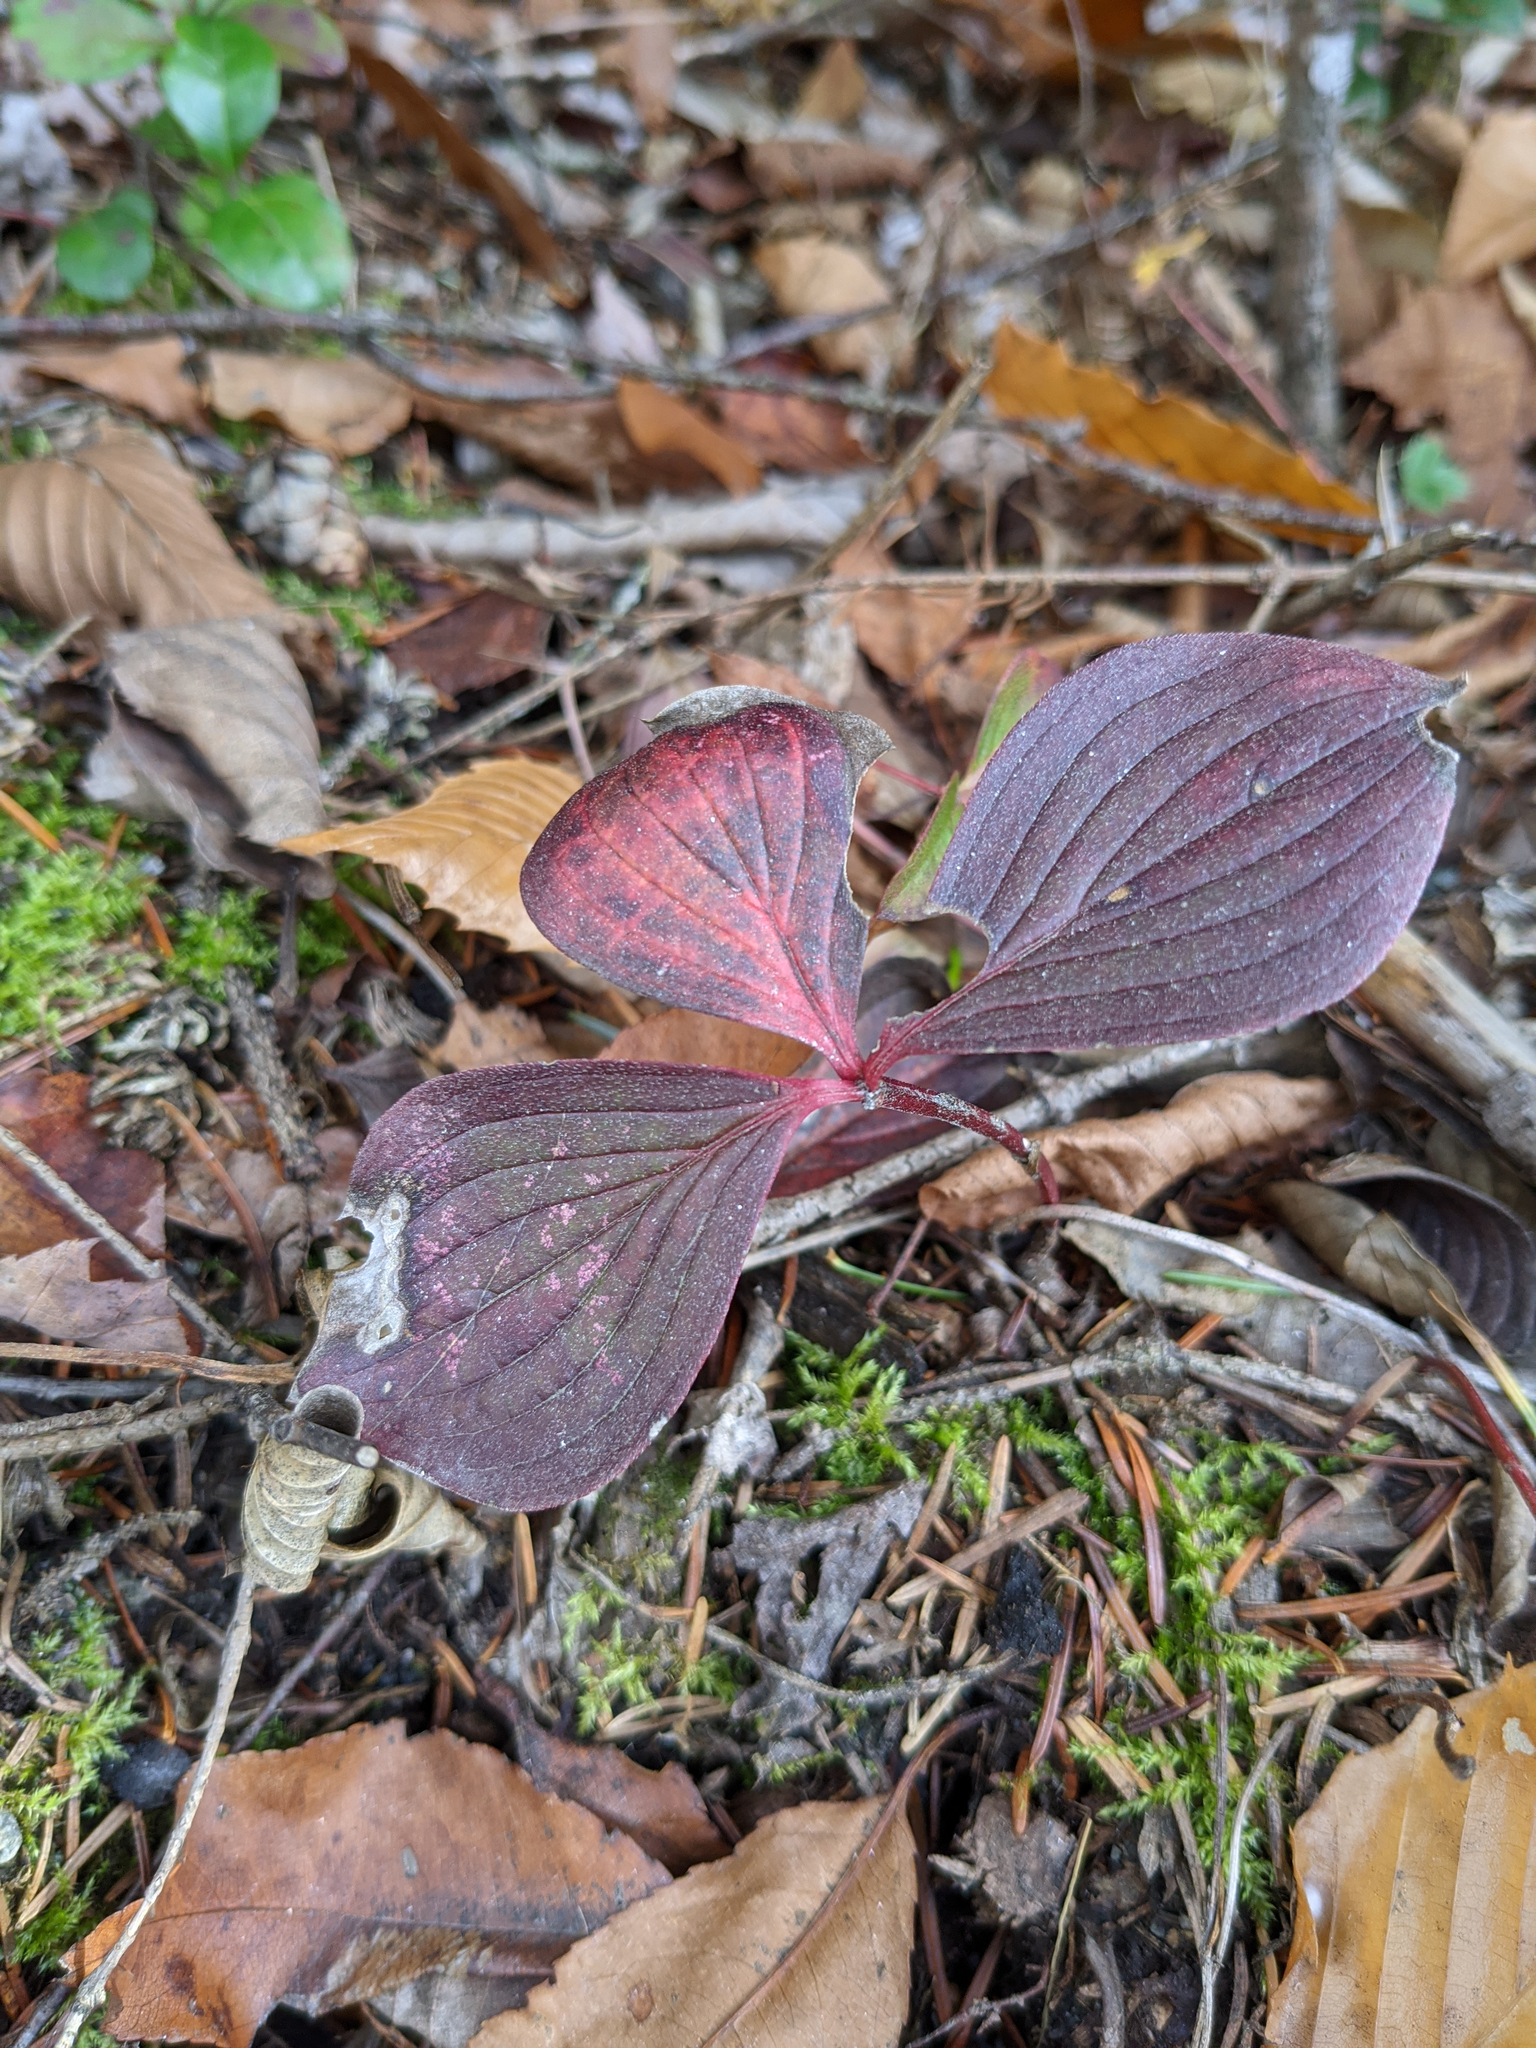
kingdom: Plantae
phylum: Tracheophyta
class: Magnoliopsida
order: Cornales
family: Cornaceae
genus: Cornus
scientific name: Cornus canadensis
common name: Creeping dogwood
